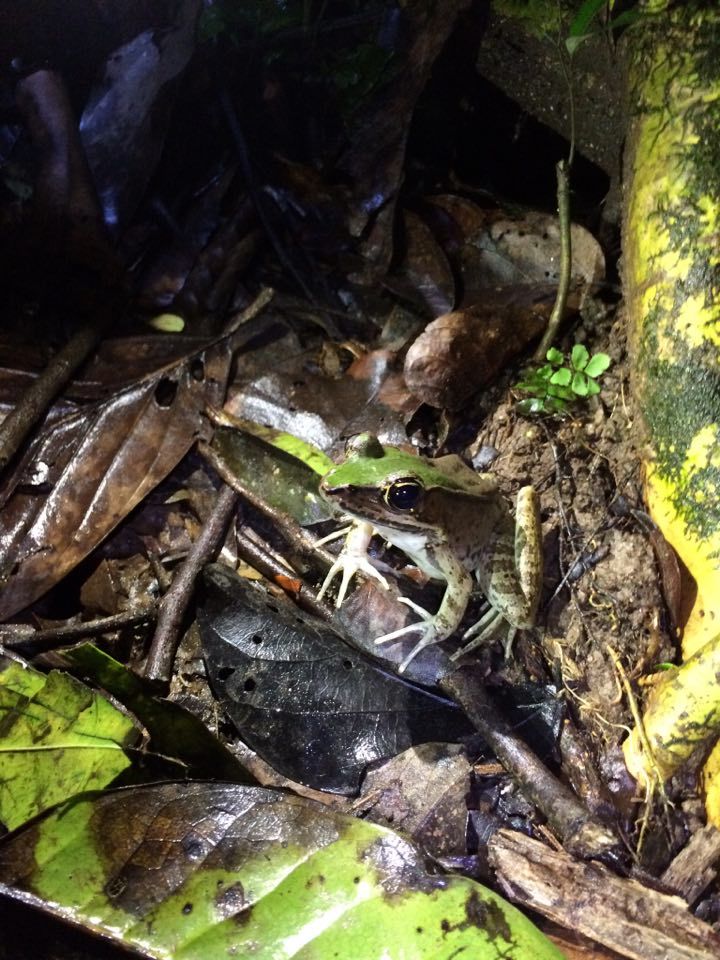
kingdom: Animalia
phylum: Chordata
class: Amphibia
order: Anura
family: Ranidae
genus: Lithobates
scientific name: Lithobates vaillanti
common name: Vaillant's frog
